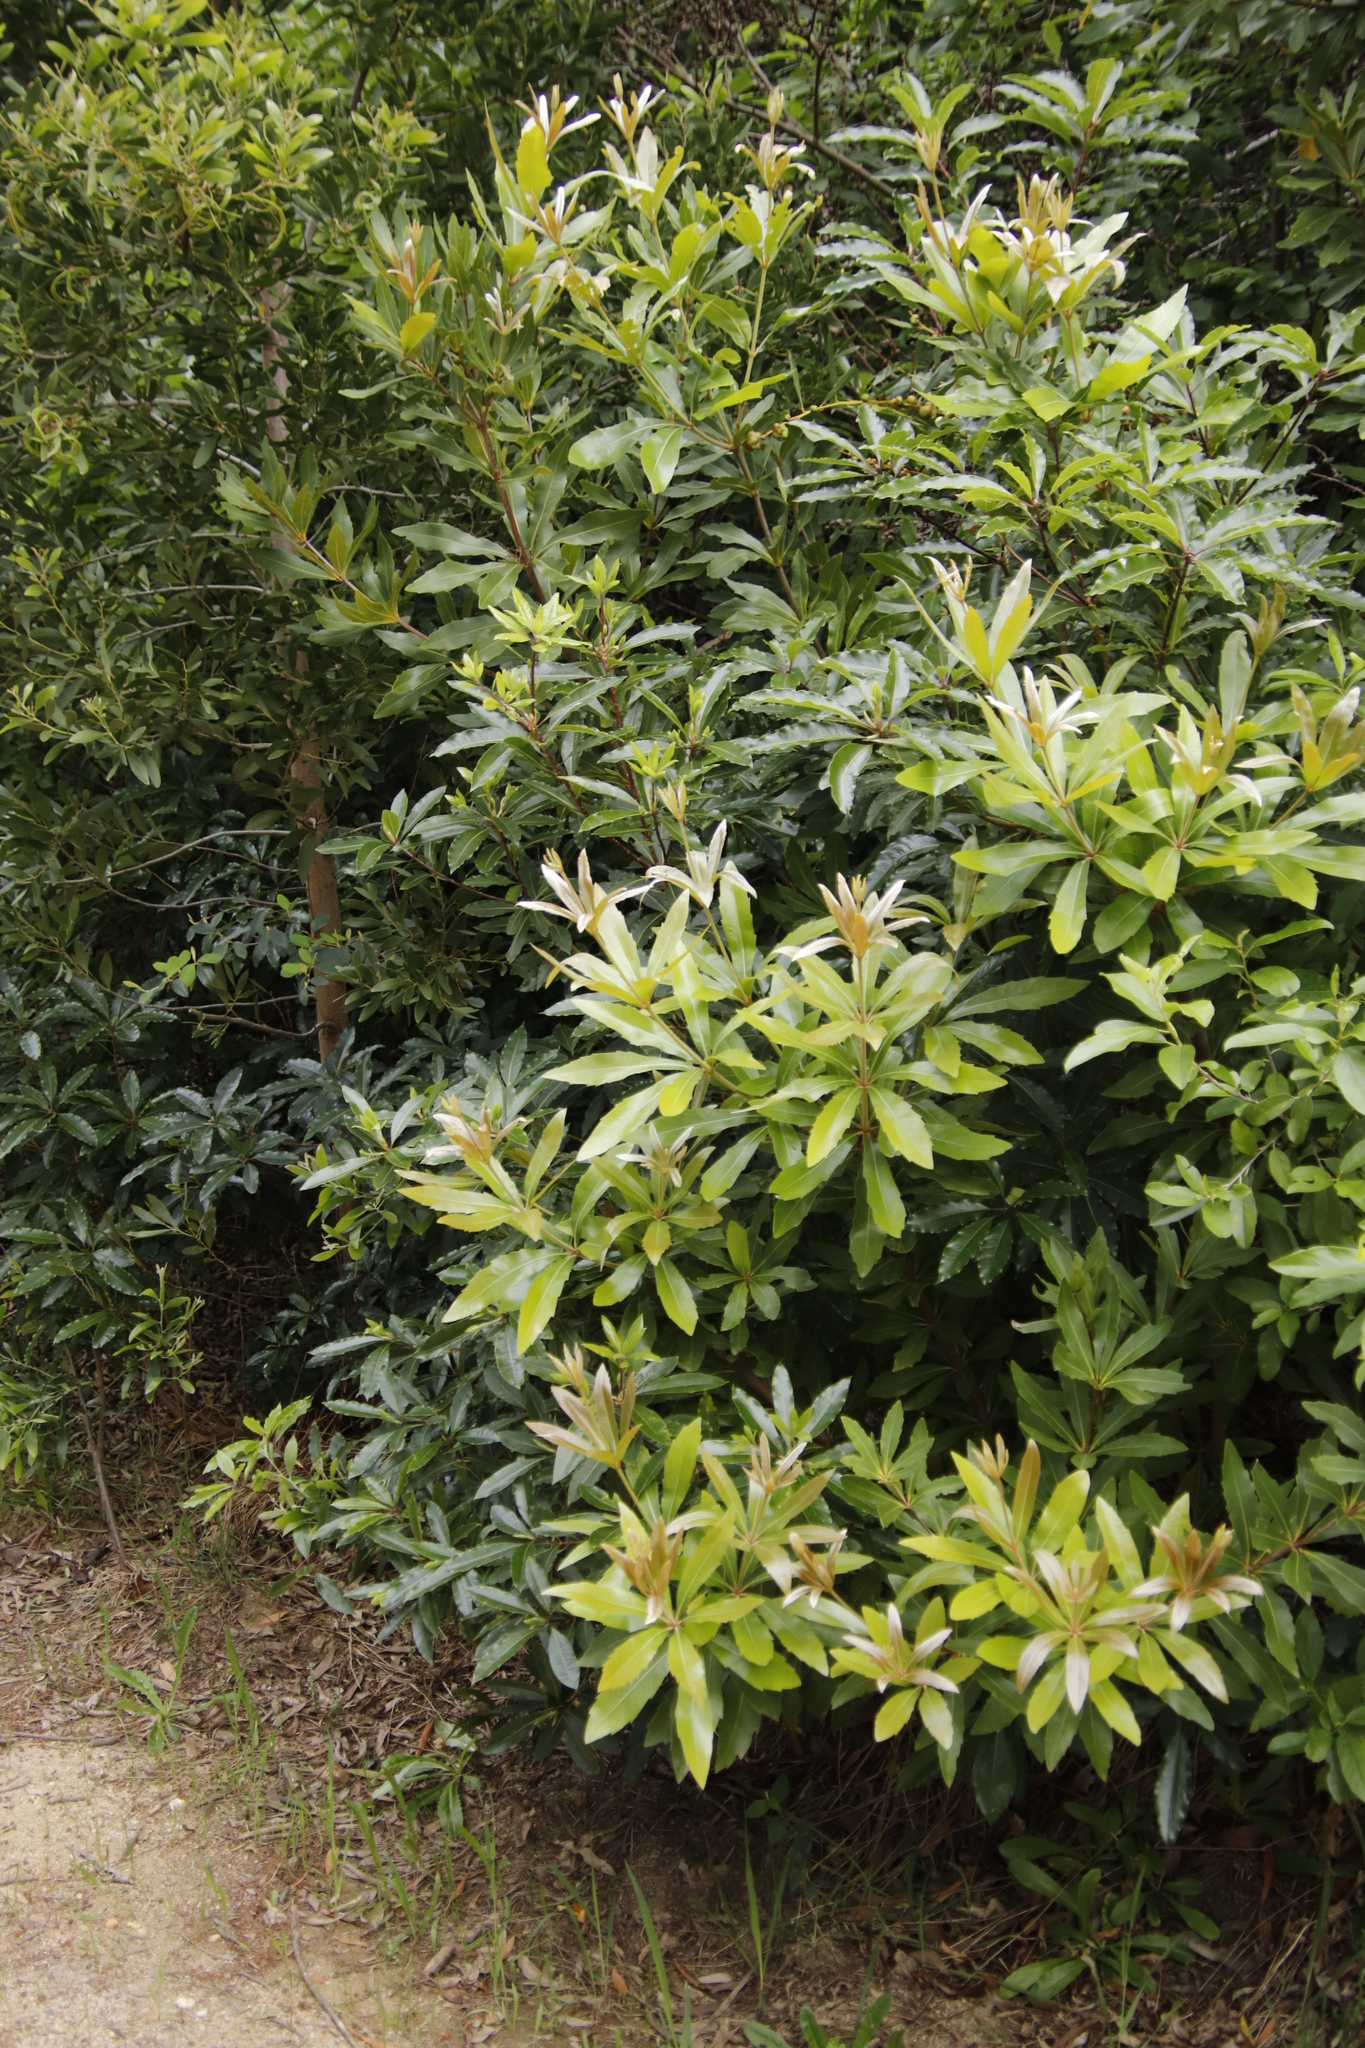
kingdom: Plantae
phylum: Tracheophyta
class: Magnoliopsida
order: Proteales
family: Proteaceae
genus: Brabejum
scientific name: Brabejum stellatifolium
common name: Wild almond
